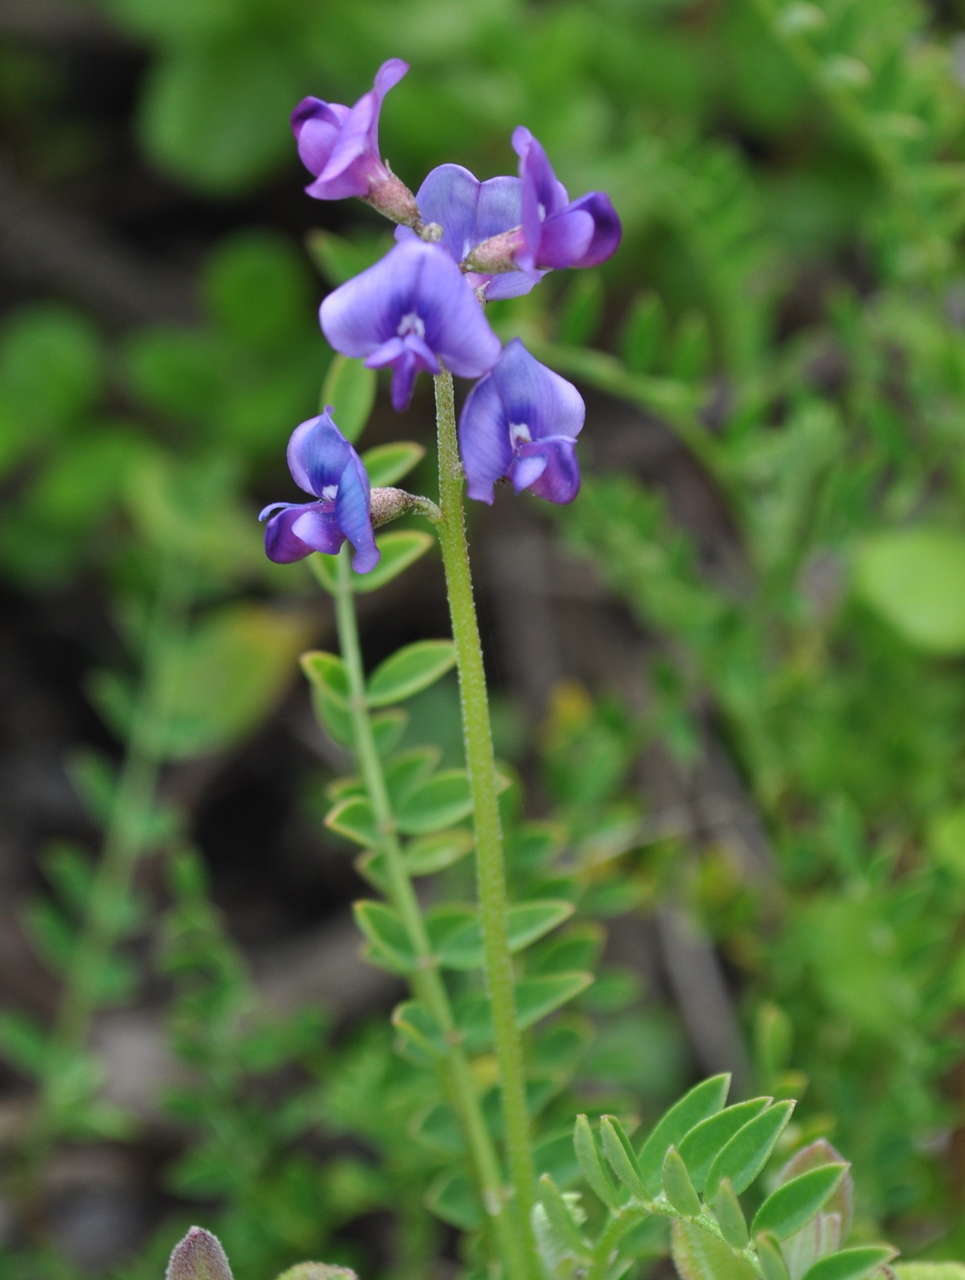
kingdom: Plantae
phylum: Tracheophyta
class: Magnoliopsida
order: Fabales
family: Fabaceae
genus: Swainsona
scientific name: Swainsona lessertiifolia
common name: Bog-pea
